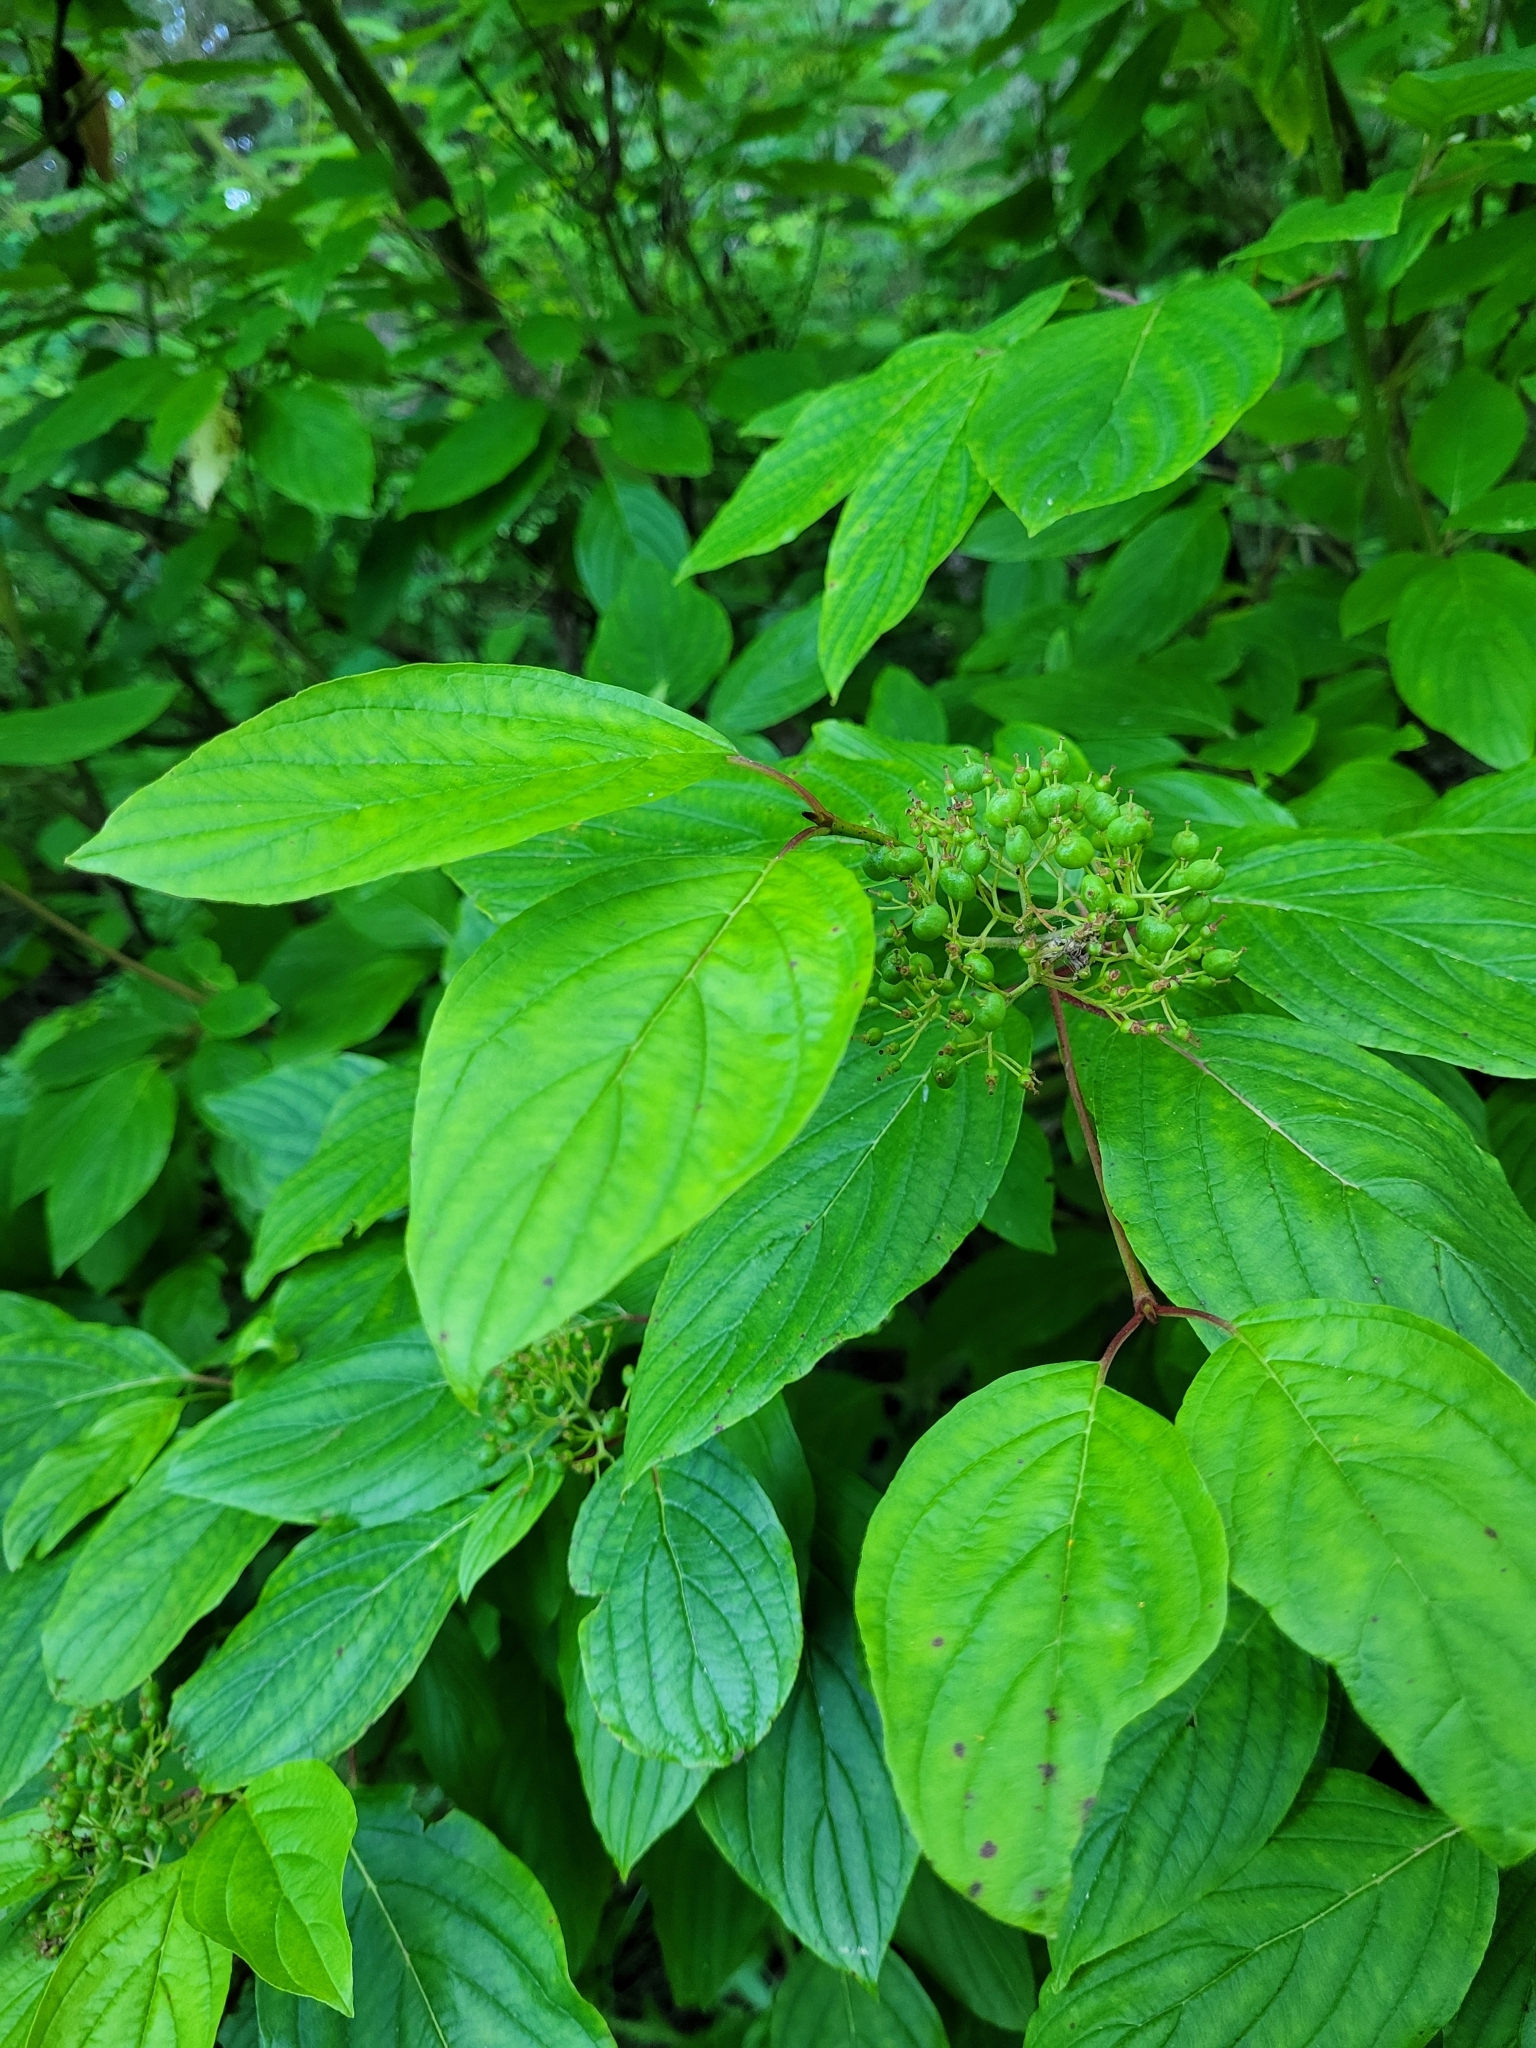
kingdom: Plantae
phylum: Tracheophyta
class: Magnoliopsida
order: Cornales
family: Cornaceae
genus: Cornus
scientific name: Cornus sericea
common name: Red-osier dogwood
